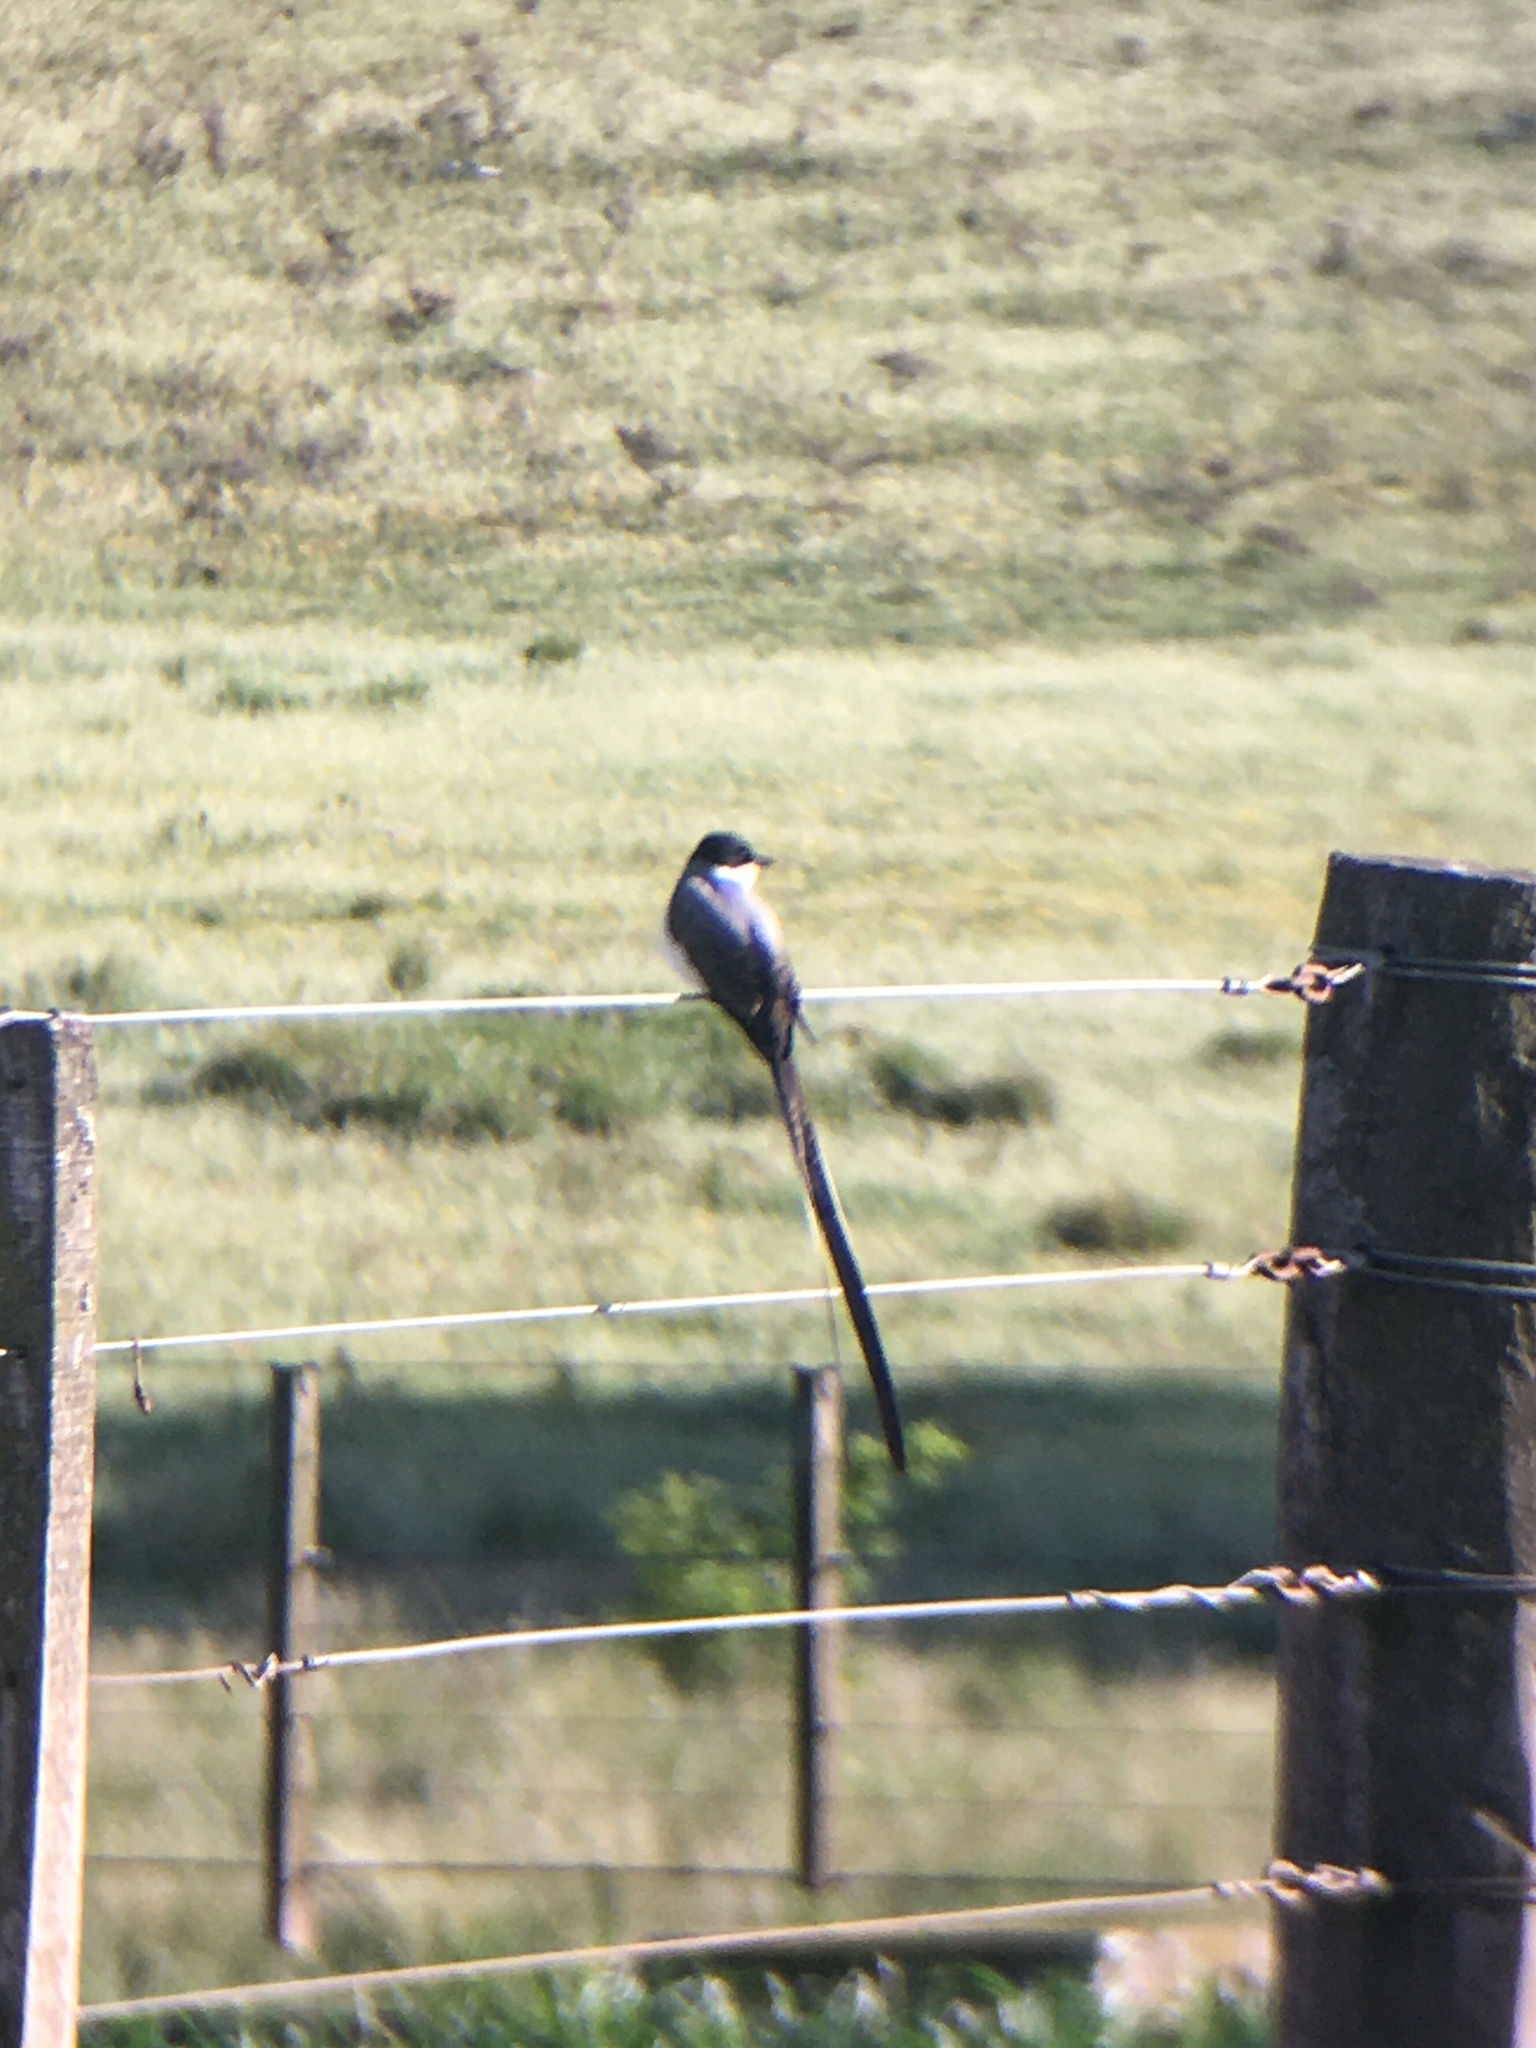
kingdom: Animalia
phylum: Chordata
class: Aves
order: Passeriformes
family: Tyrannidae
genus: Tyrannus
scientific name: Tyrannus savana
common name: Fork-tailed flycatcher
